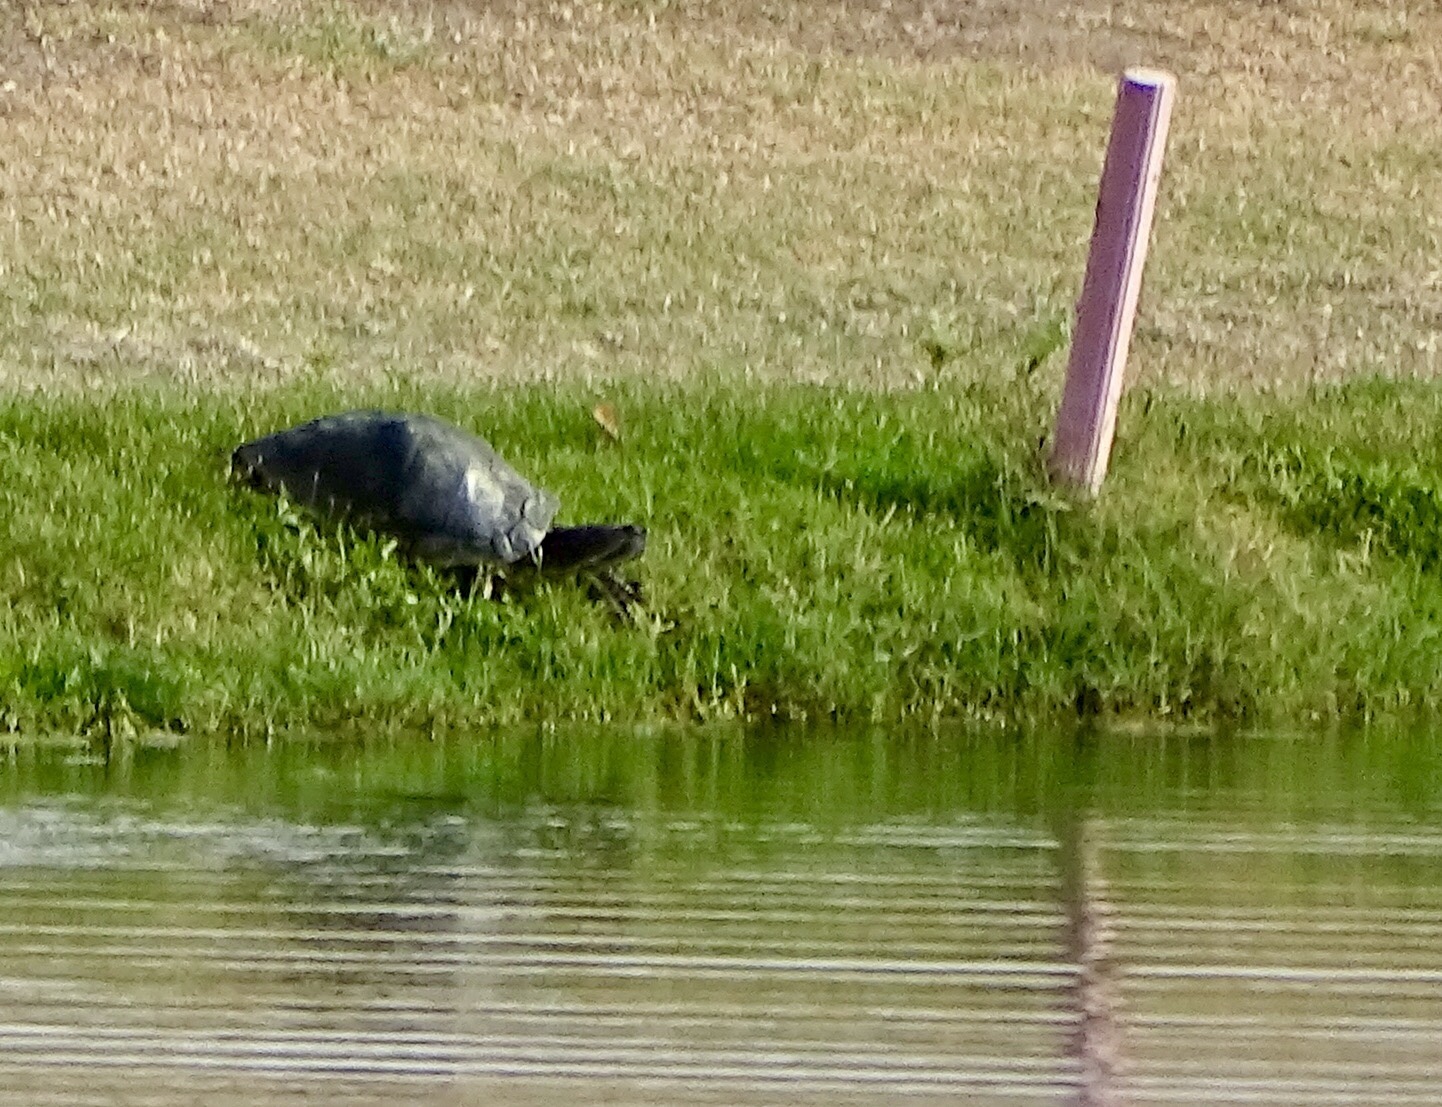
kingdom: Animalia
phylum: Chordata
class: Testudines
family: Emydidae
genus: Trachemys
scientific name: Trachemys scripta
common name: Slider
